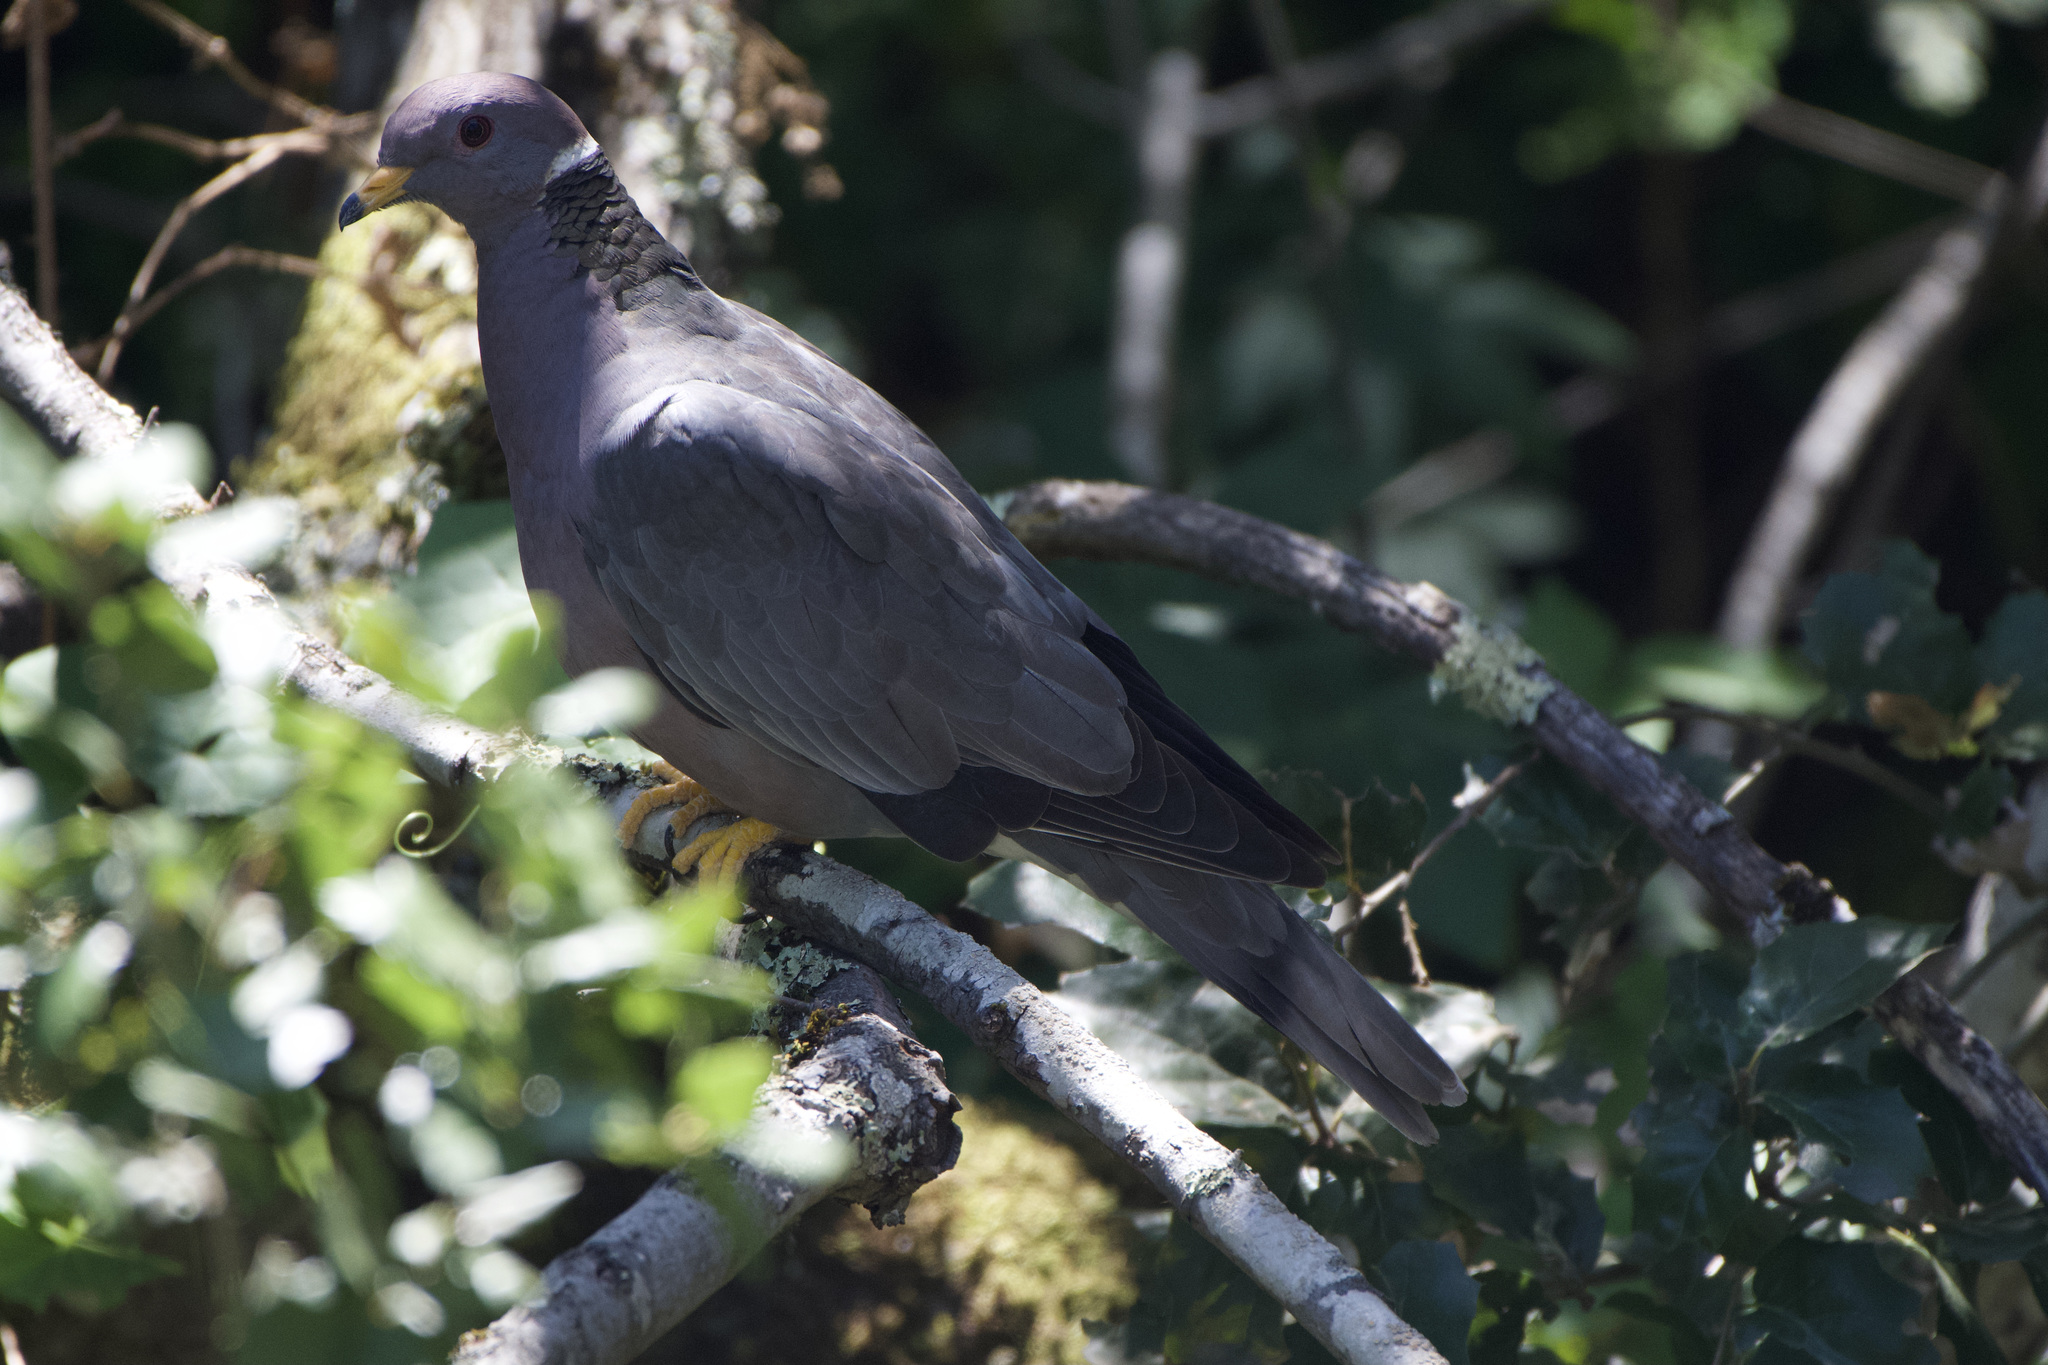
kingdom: Animalia
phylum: Chordata
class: Aves
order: Columbiformes
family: Columbidae
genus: Patagioenas
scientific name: Patagioenas fasciata
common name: Band-tailed pigeon
